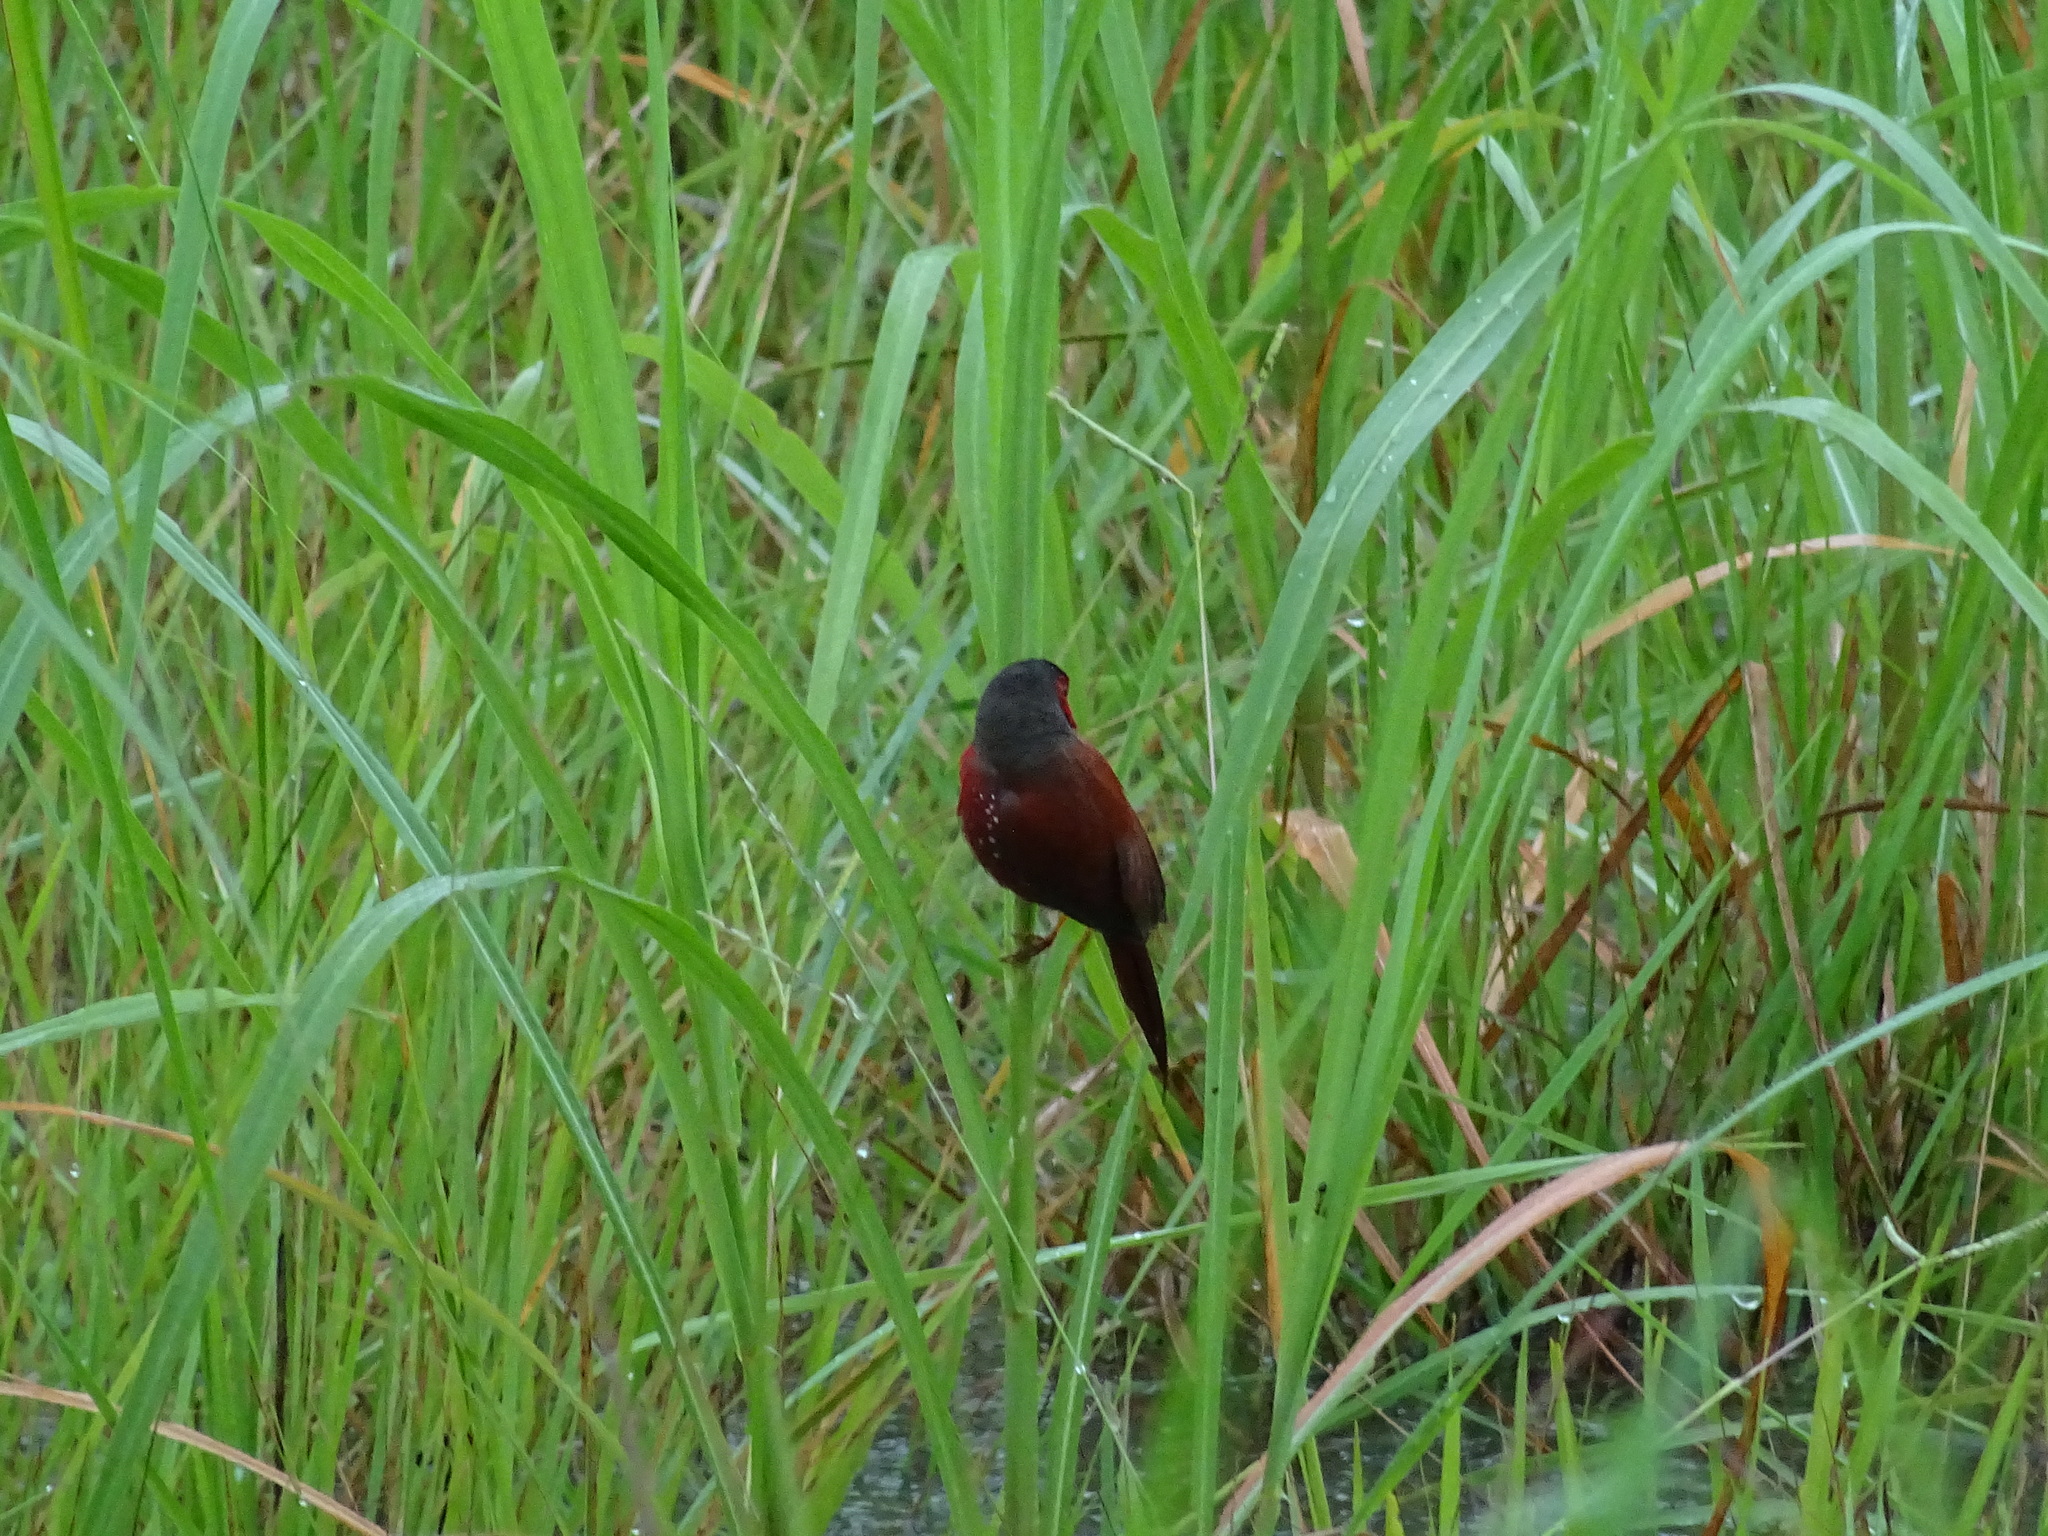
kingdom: Animalia
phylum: Chordata
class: Aves
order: Passeriformes
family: Estrildidae
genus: Neochmia
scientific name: Neochmia phaeton
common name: Crimson finch
